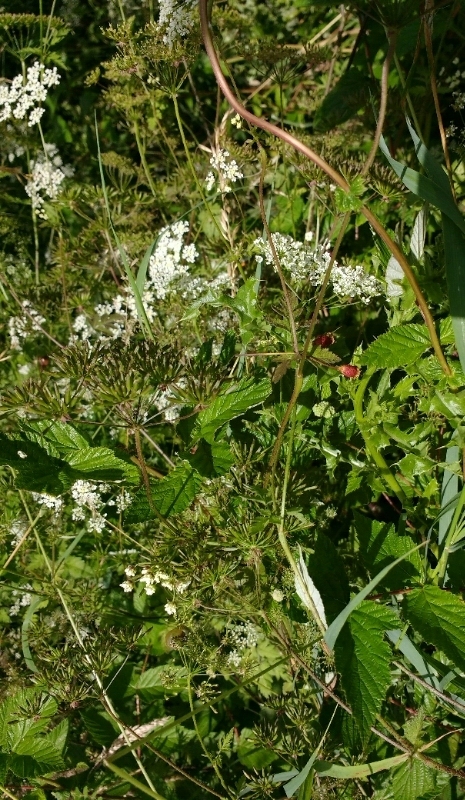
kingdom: Plantae
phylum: Tracheophyta
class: Magnoliopsida
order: Rosales
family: Rosaceae
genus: Filipendula
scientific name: Filipendula ulmaria
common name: Meadowsweet
